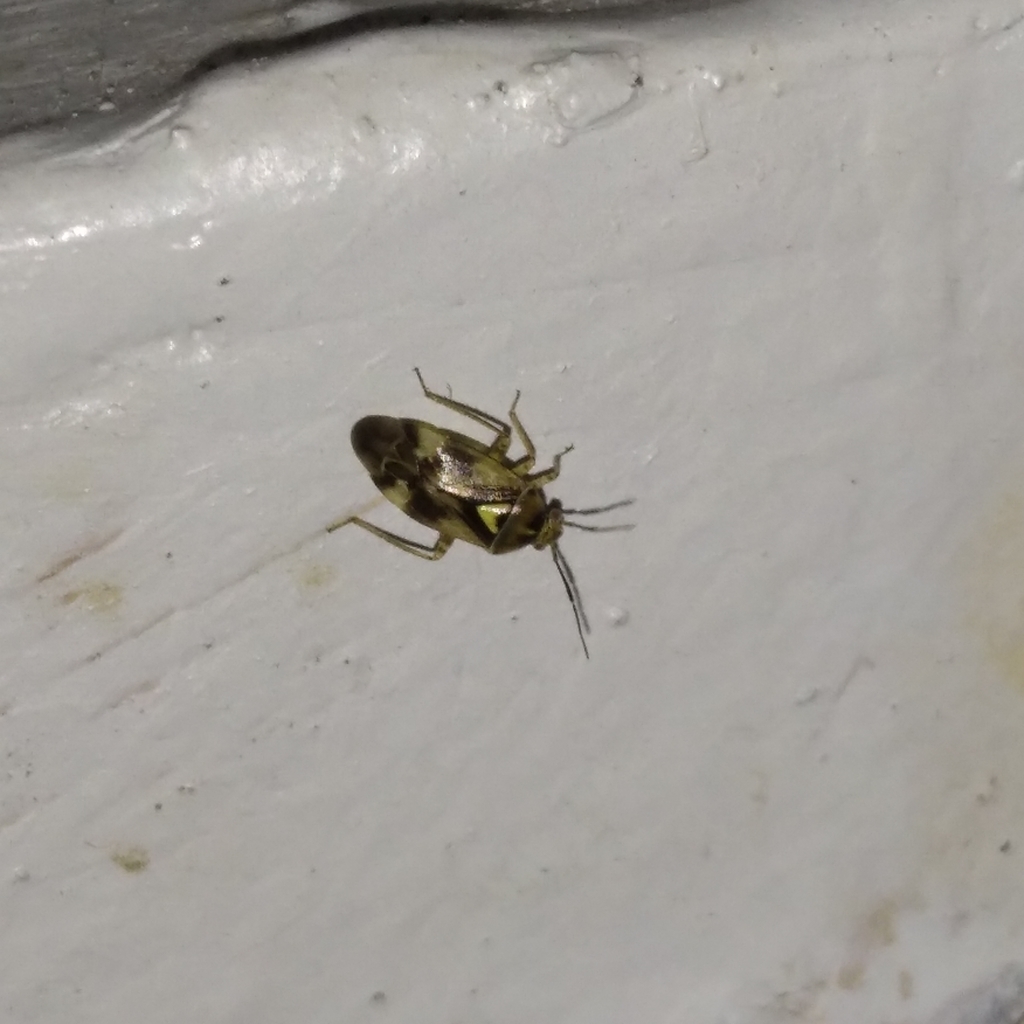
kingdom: Animalia
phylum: Arthropoda
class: Insecta
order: Hemiptera
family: Miridae
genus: Orthops
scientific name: Orthops
